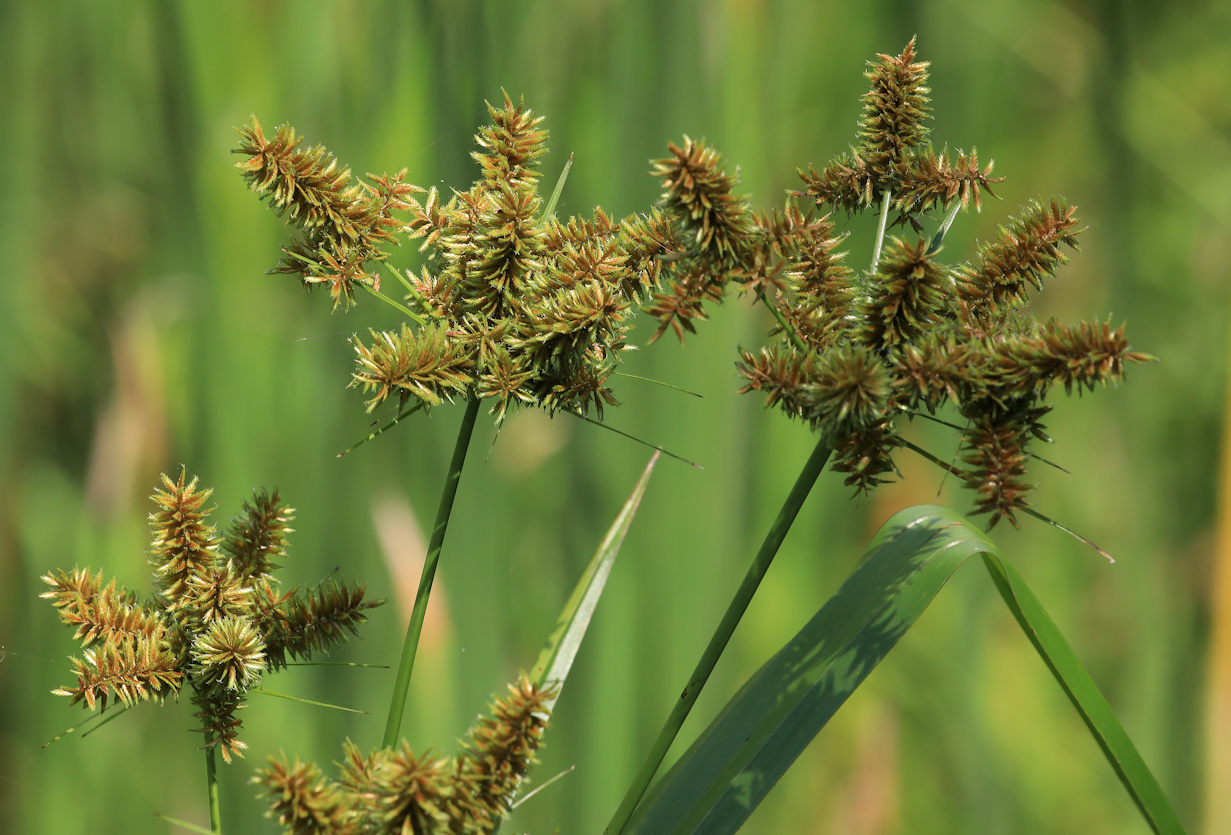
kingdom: Plantae
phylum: Tracheophyta
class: Liliopsida
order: Poales
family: Cyperaceae
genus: Cyperus
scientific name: Cyperus dives
